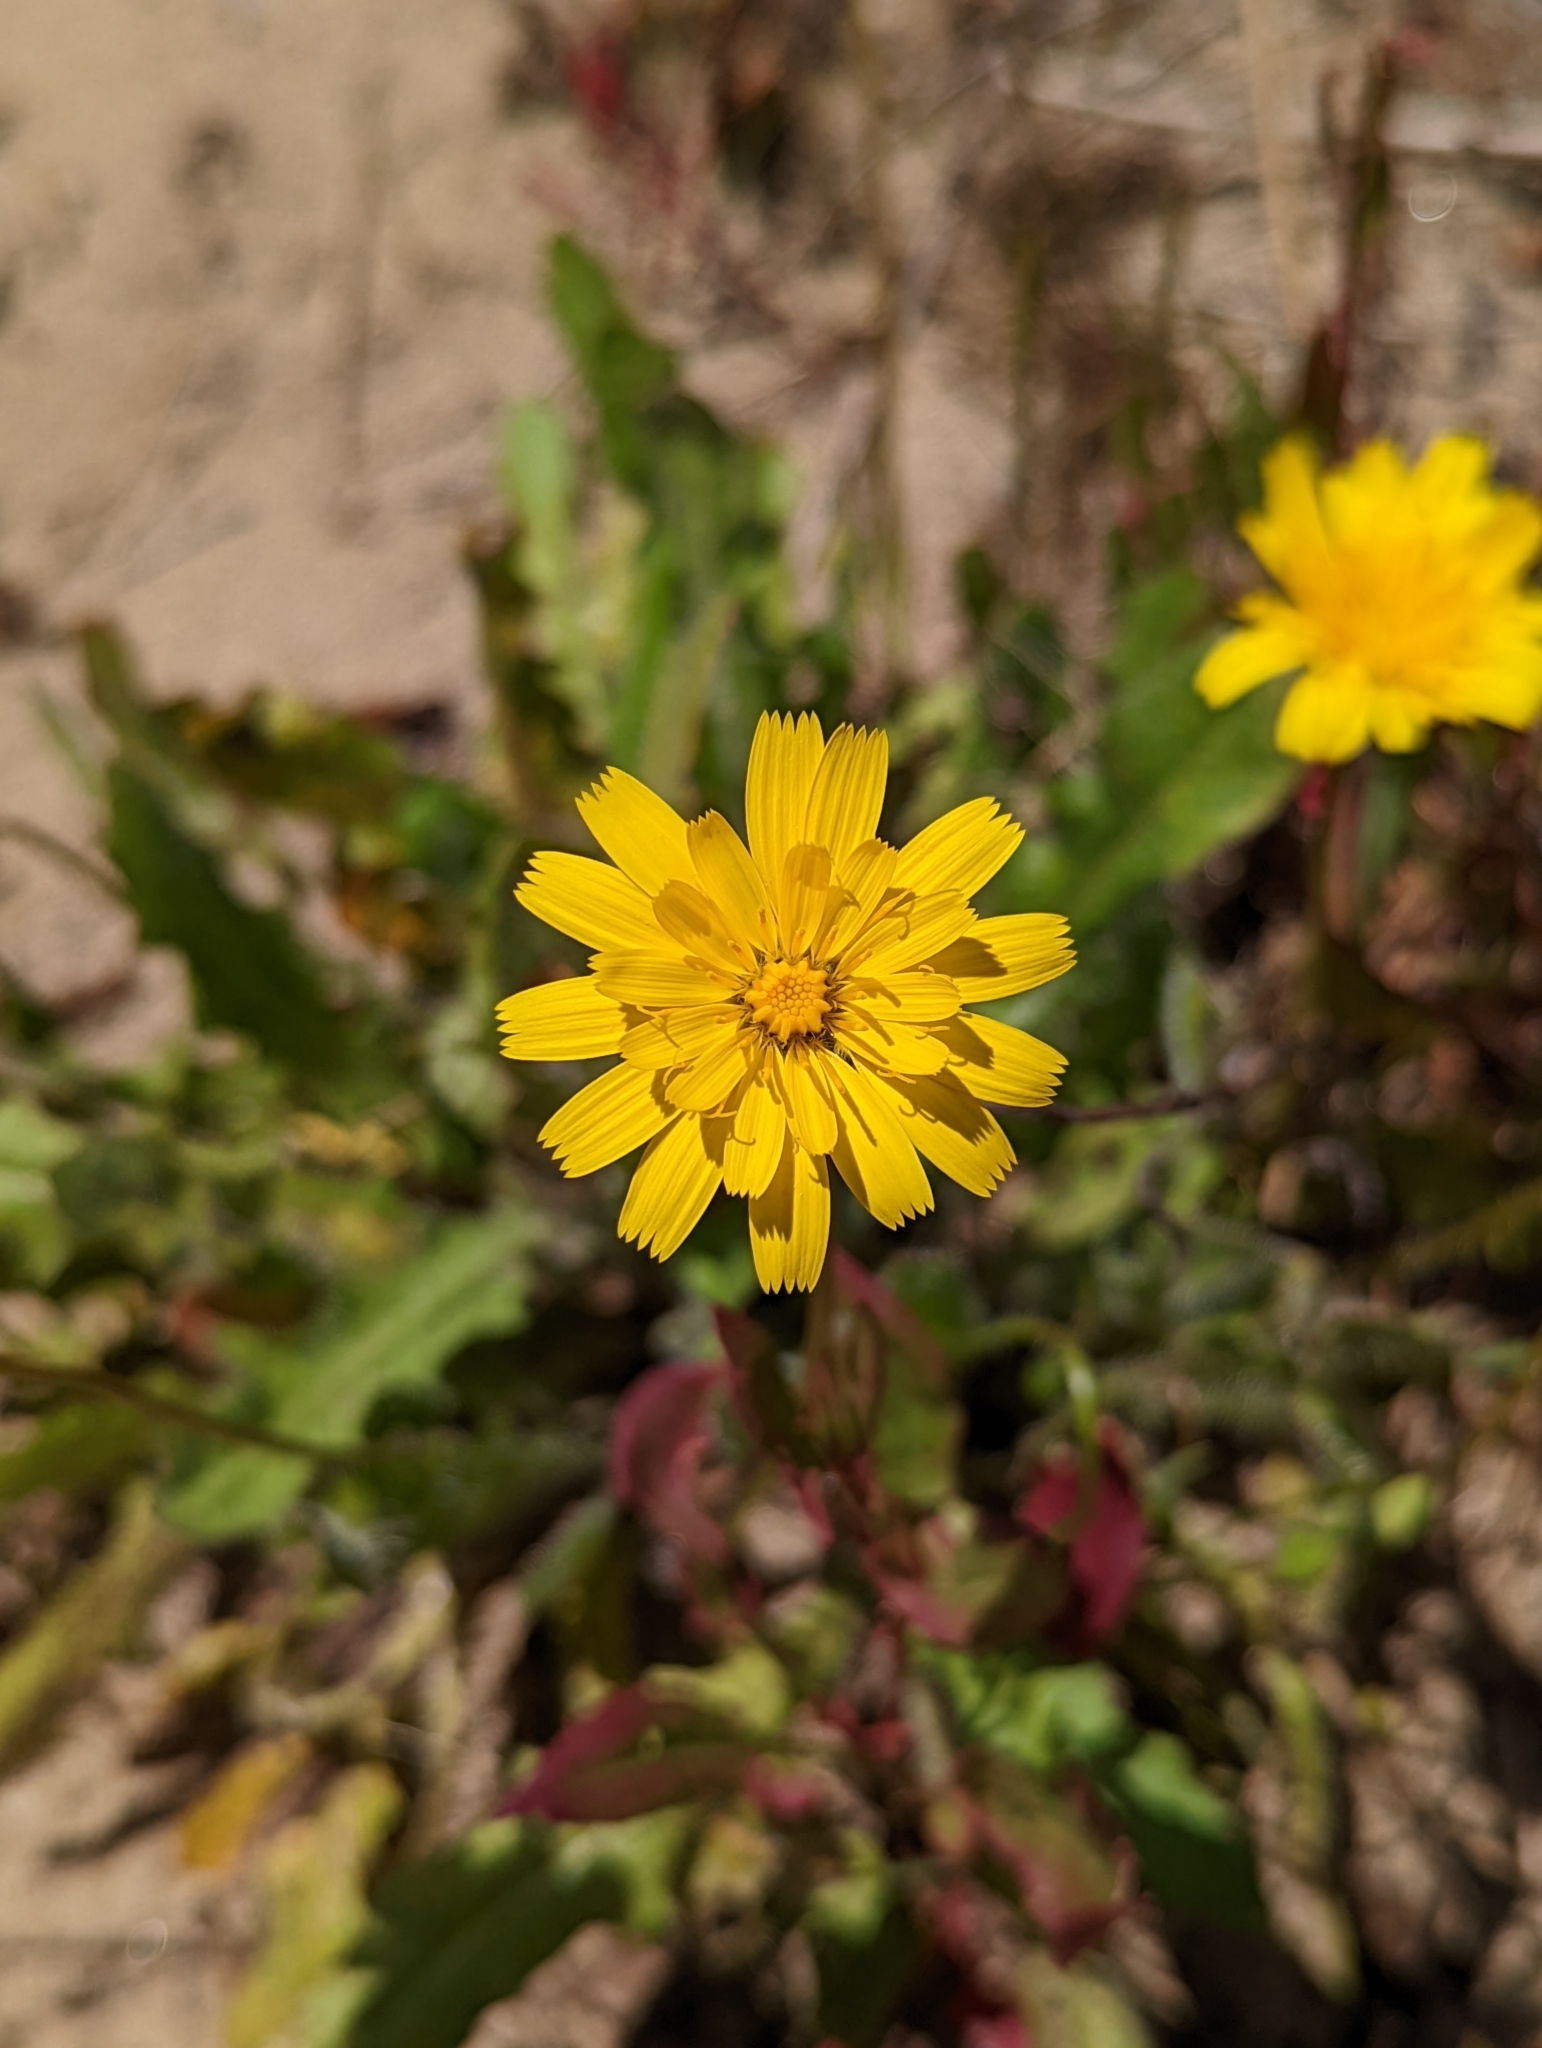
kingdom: Plantae
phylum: Tracheophyta
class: Magnoliopsida
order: Asterales
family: Asteraceae
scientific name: Asteraceae
